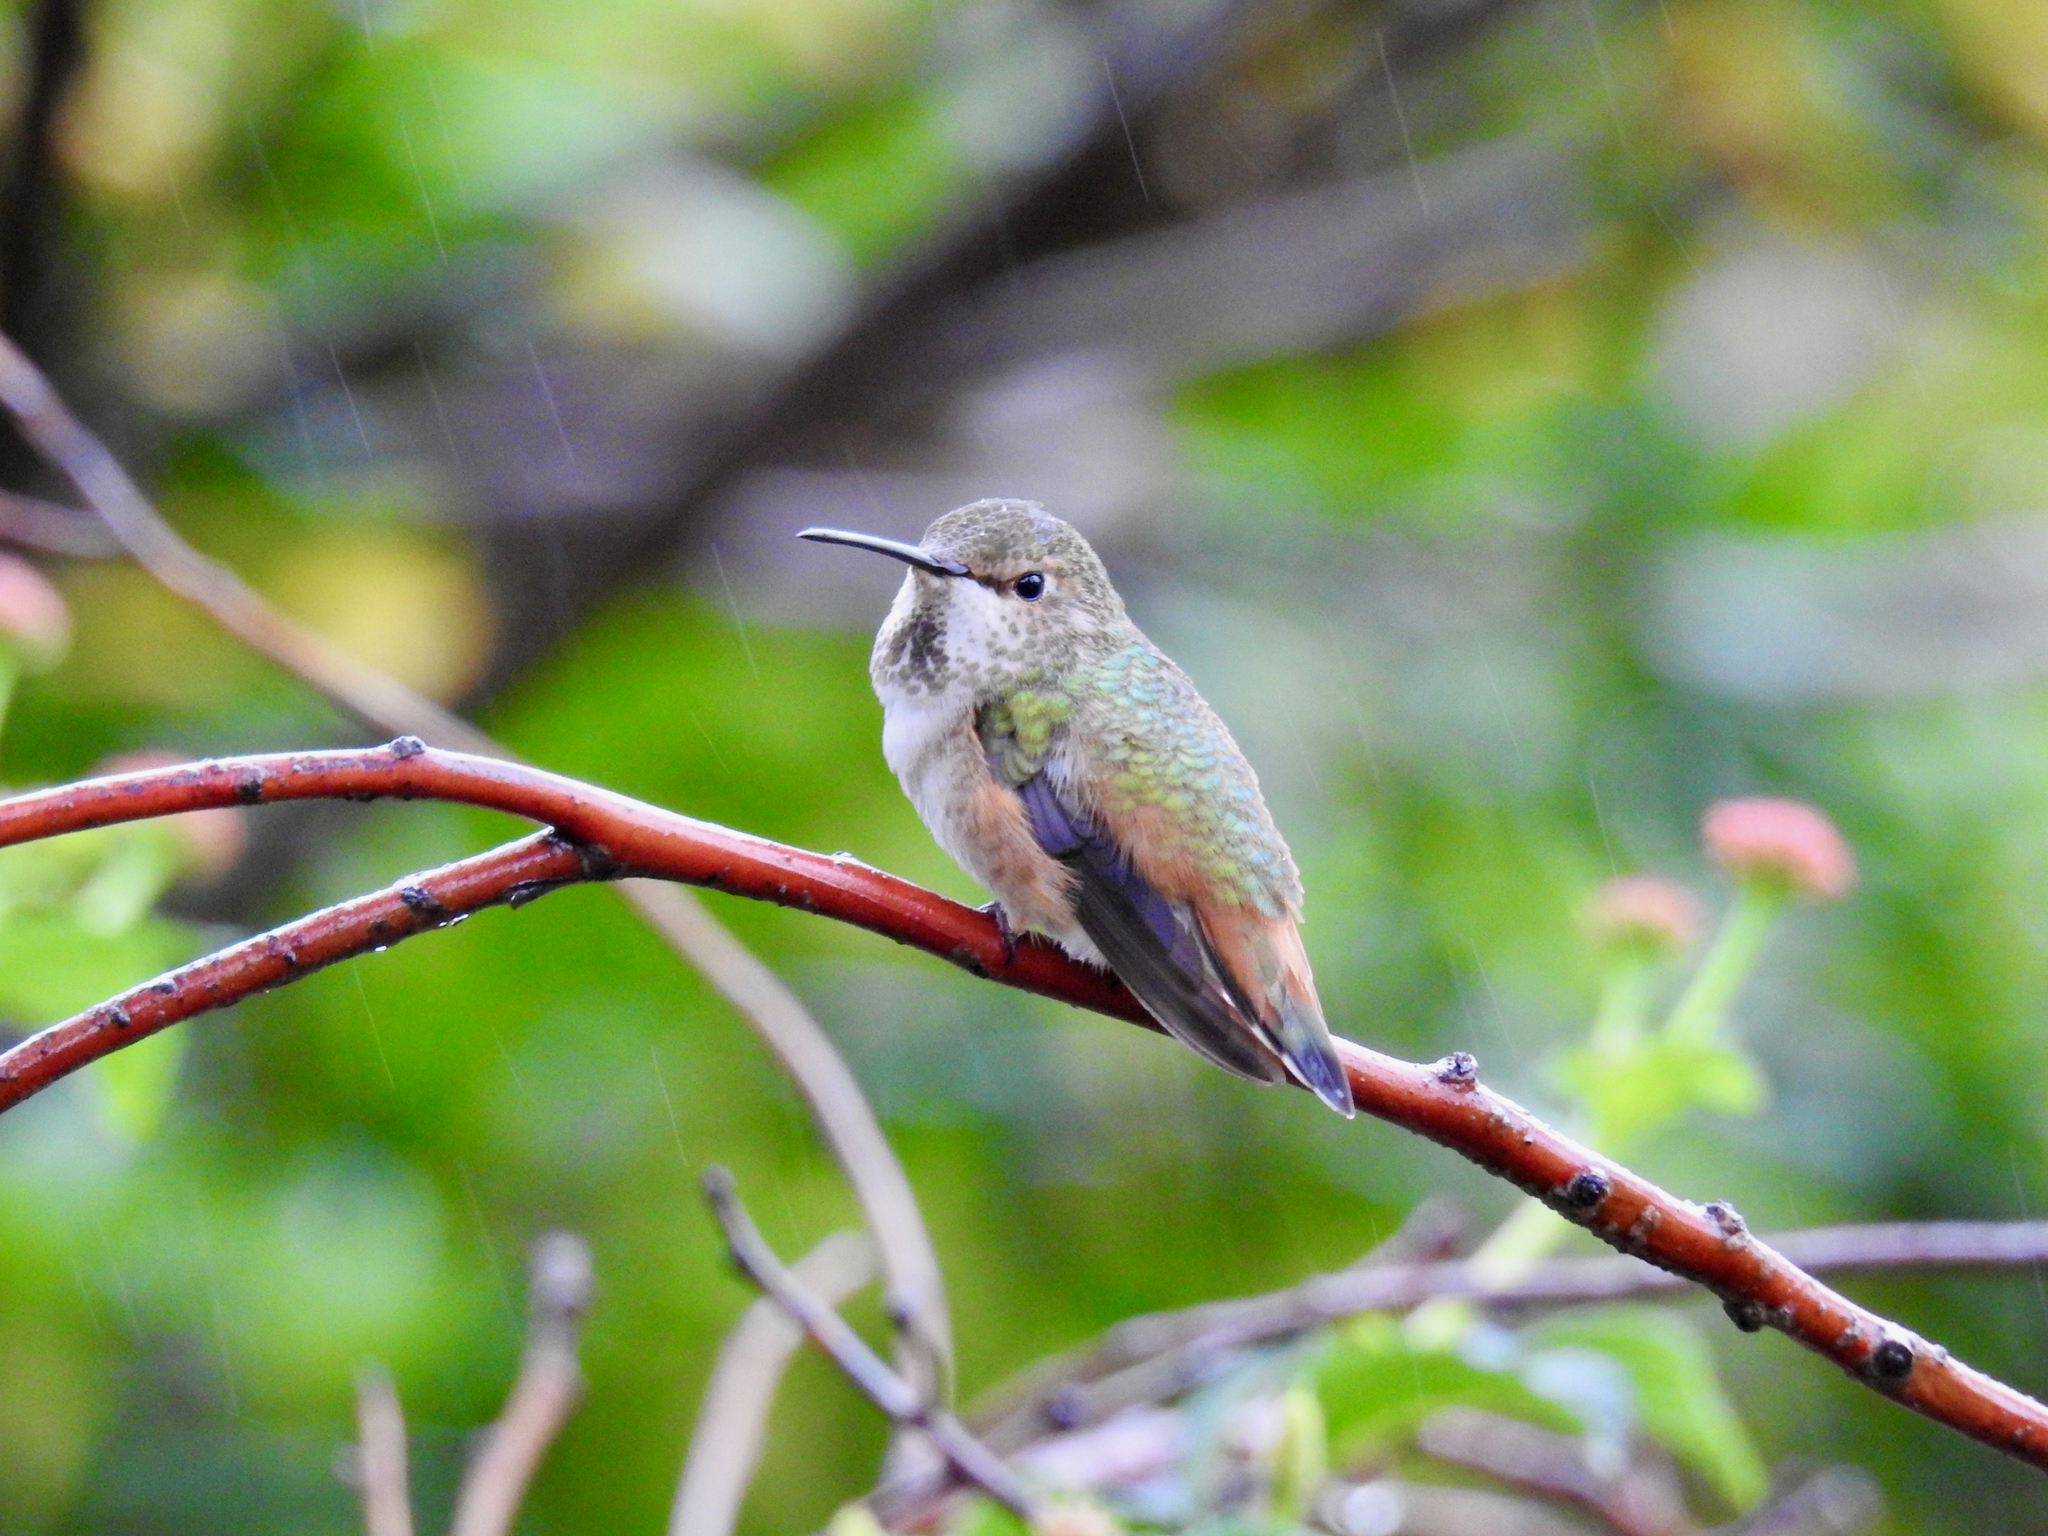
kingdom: Animalia
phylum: Chordata
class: Aves
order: Apodiformes
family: Trochilidae
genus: Selasphorus
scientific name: Selasphorus sasin
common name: Allen's hummingbird
